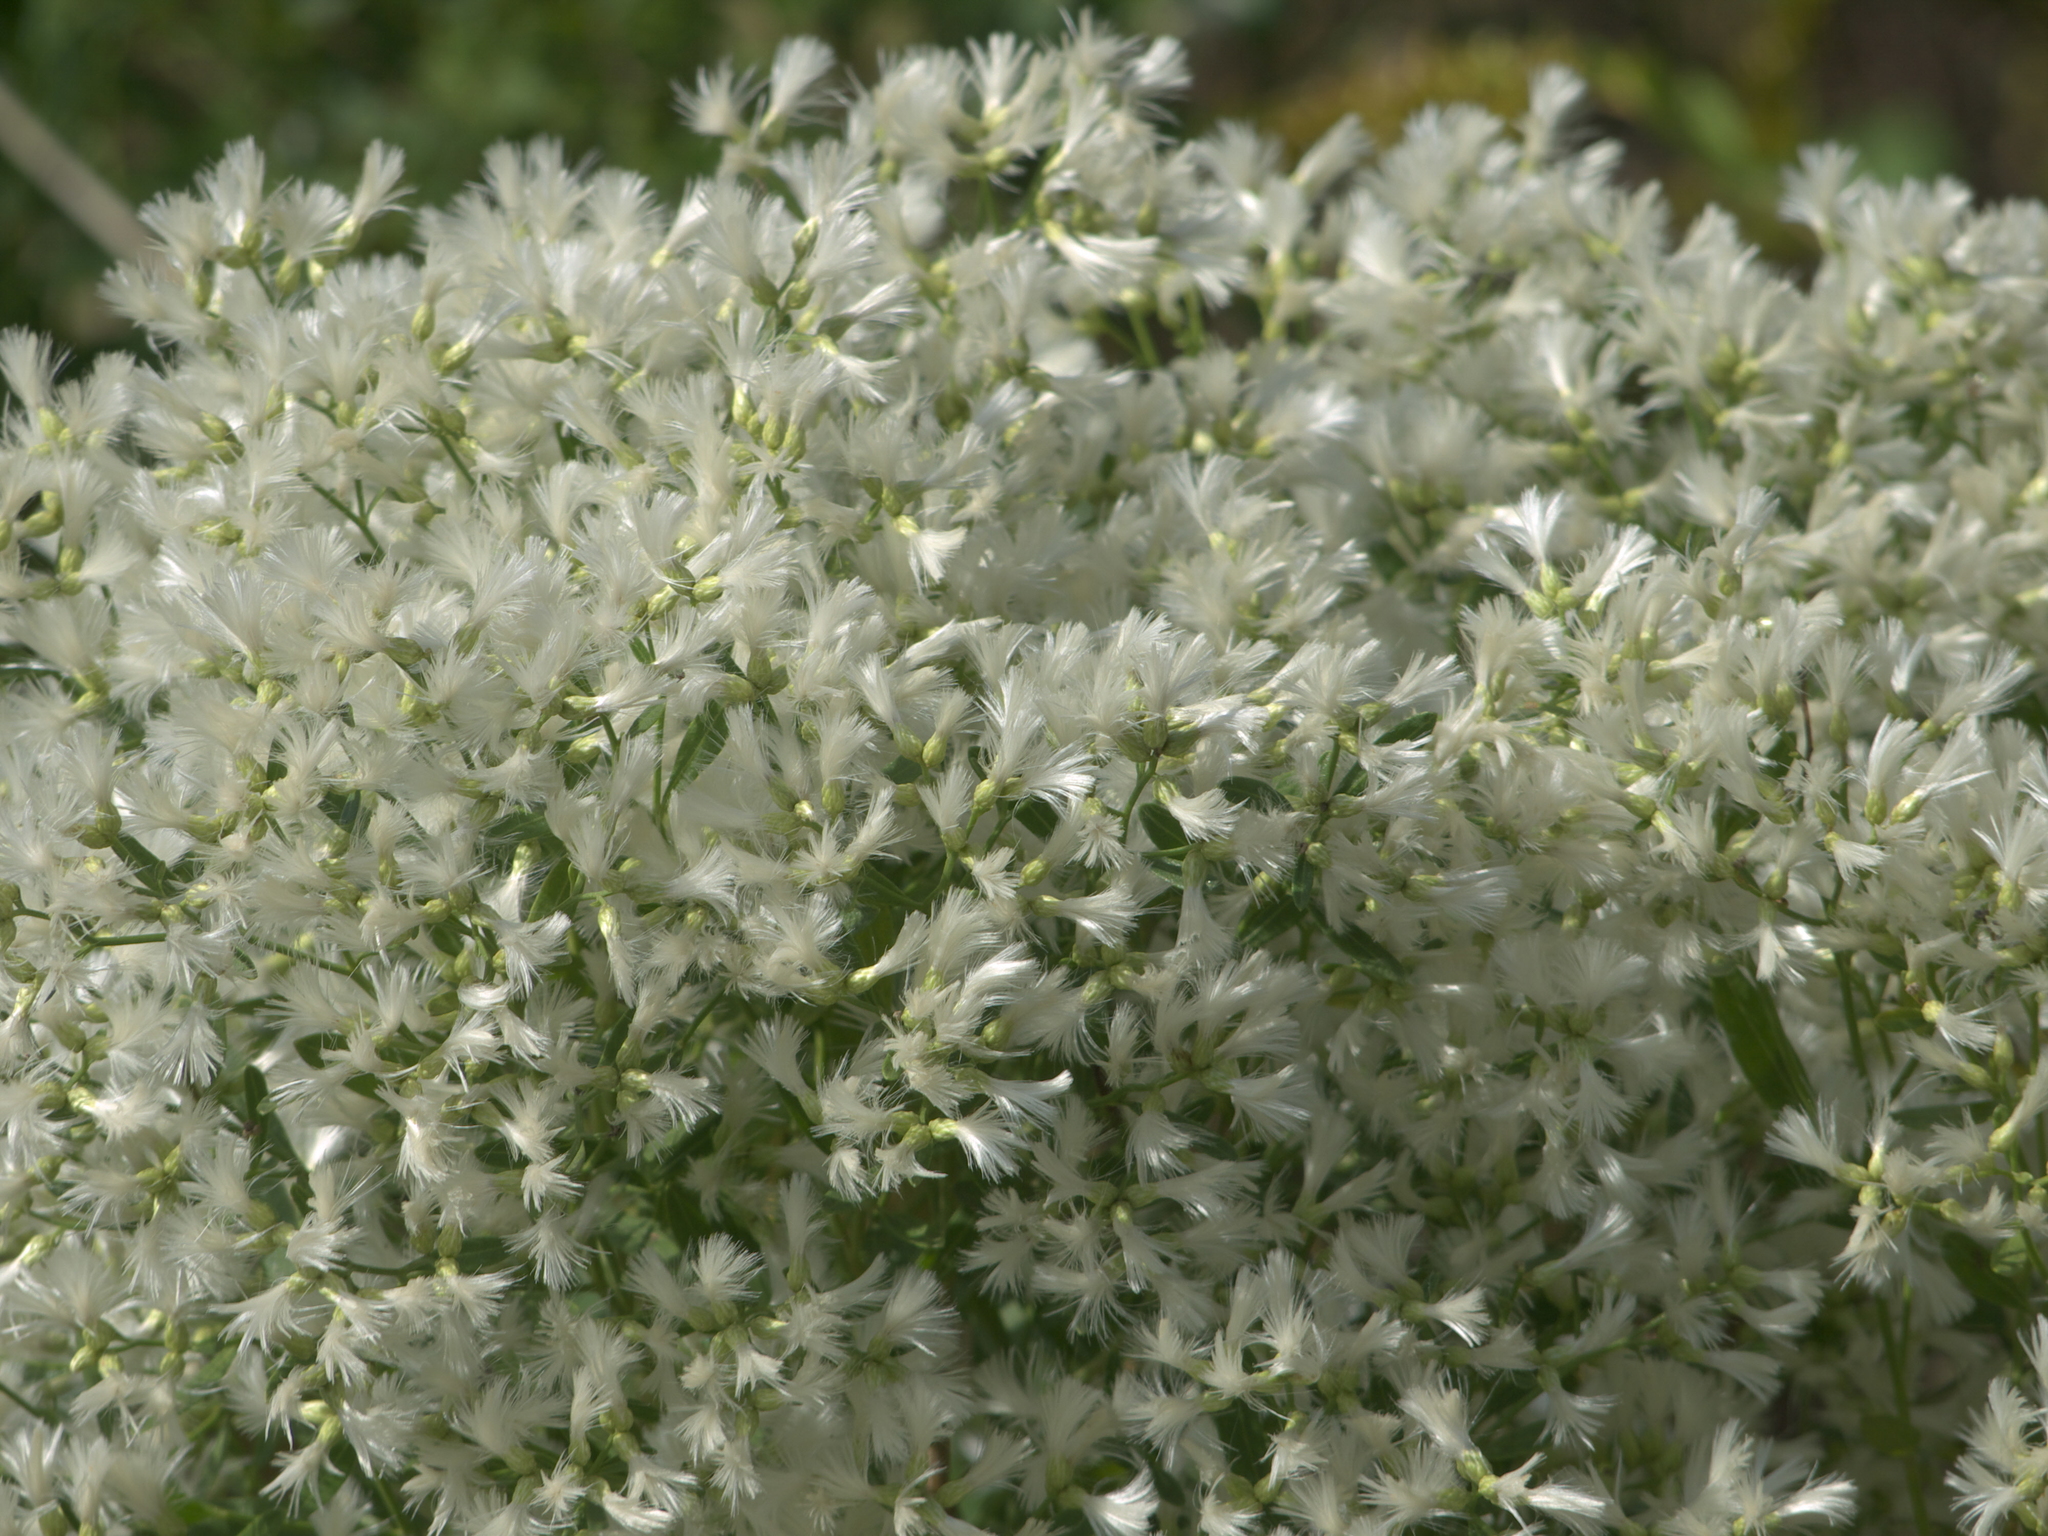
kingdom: Plantae
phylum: Tracheophyta
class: Magnoliopsida
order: Asterales
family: Asteraceae
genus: Baccharis
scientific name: Baccharis halimifolia
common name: Eastern baccharis
